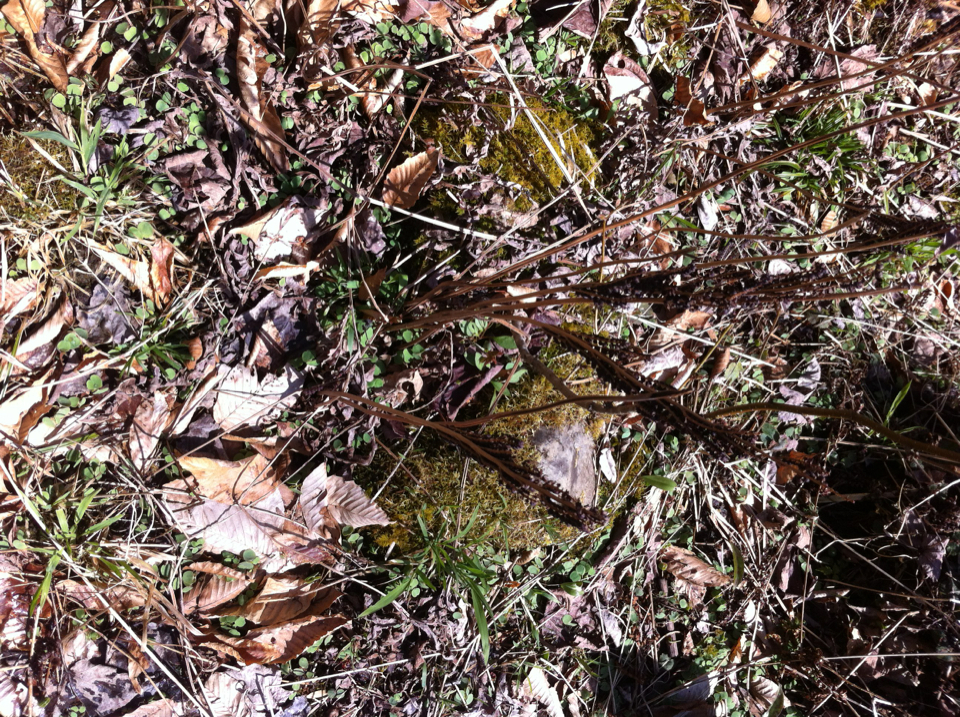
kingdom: Plantae
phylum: Tracheophyta
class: Polypodiopsida
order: Polypodiales
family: Onocleaceae
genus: Onoclea
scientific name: Onoclea sensibilis
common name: Sensitive fern
